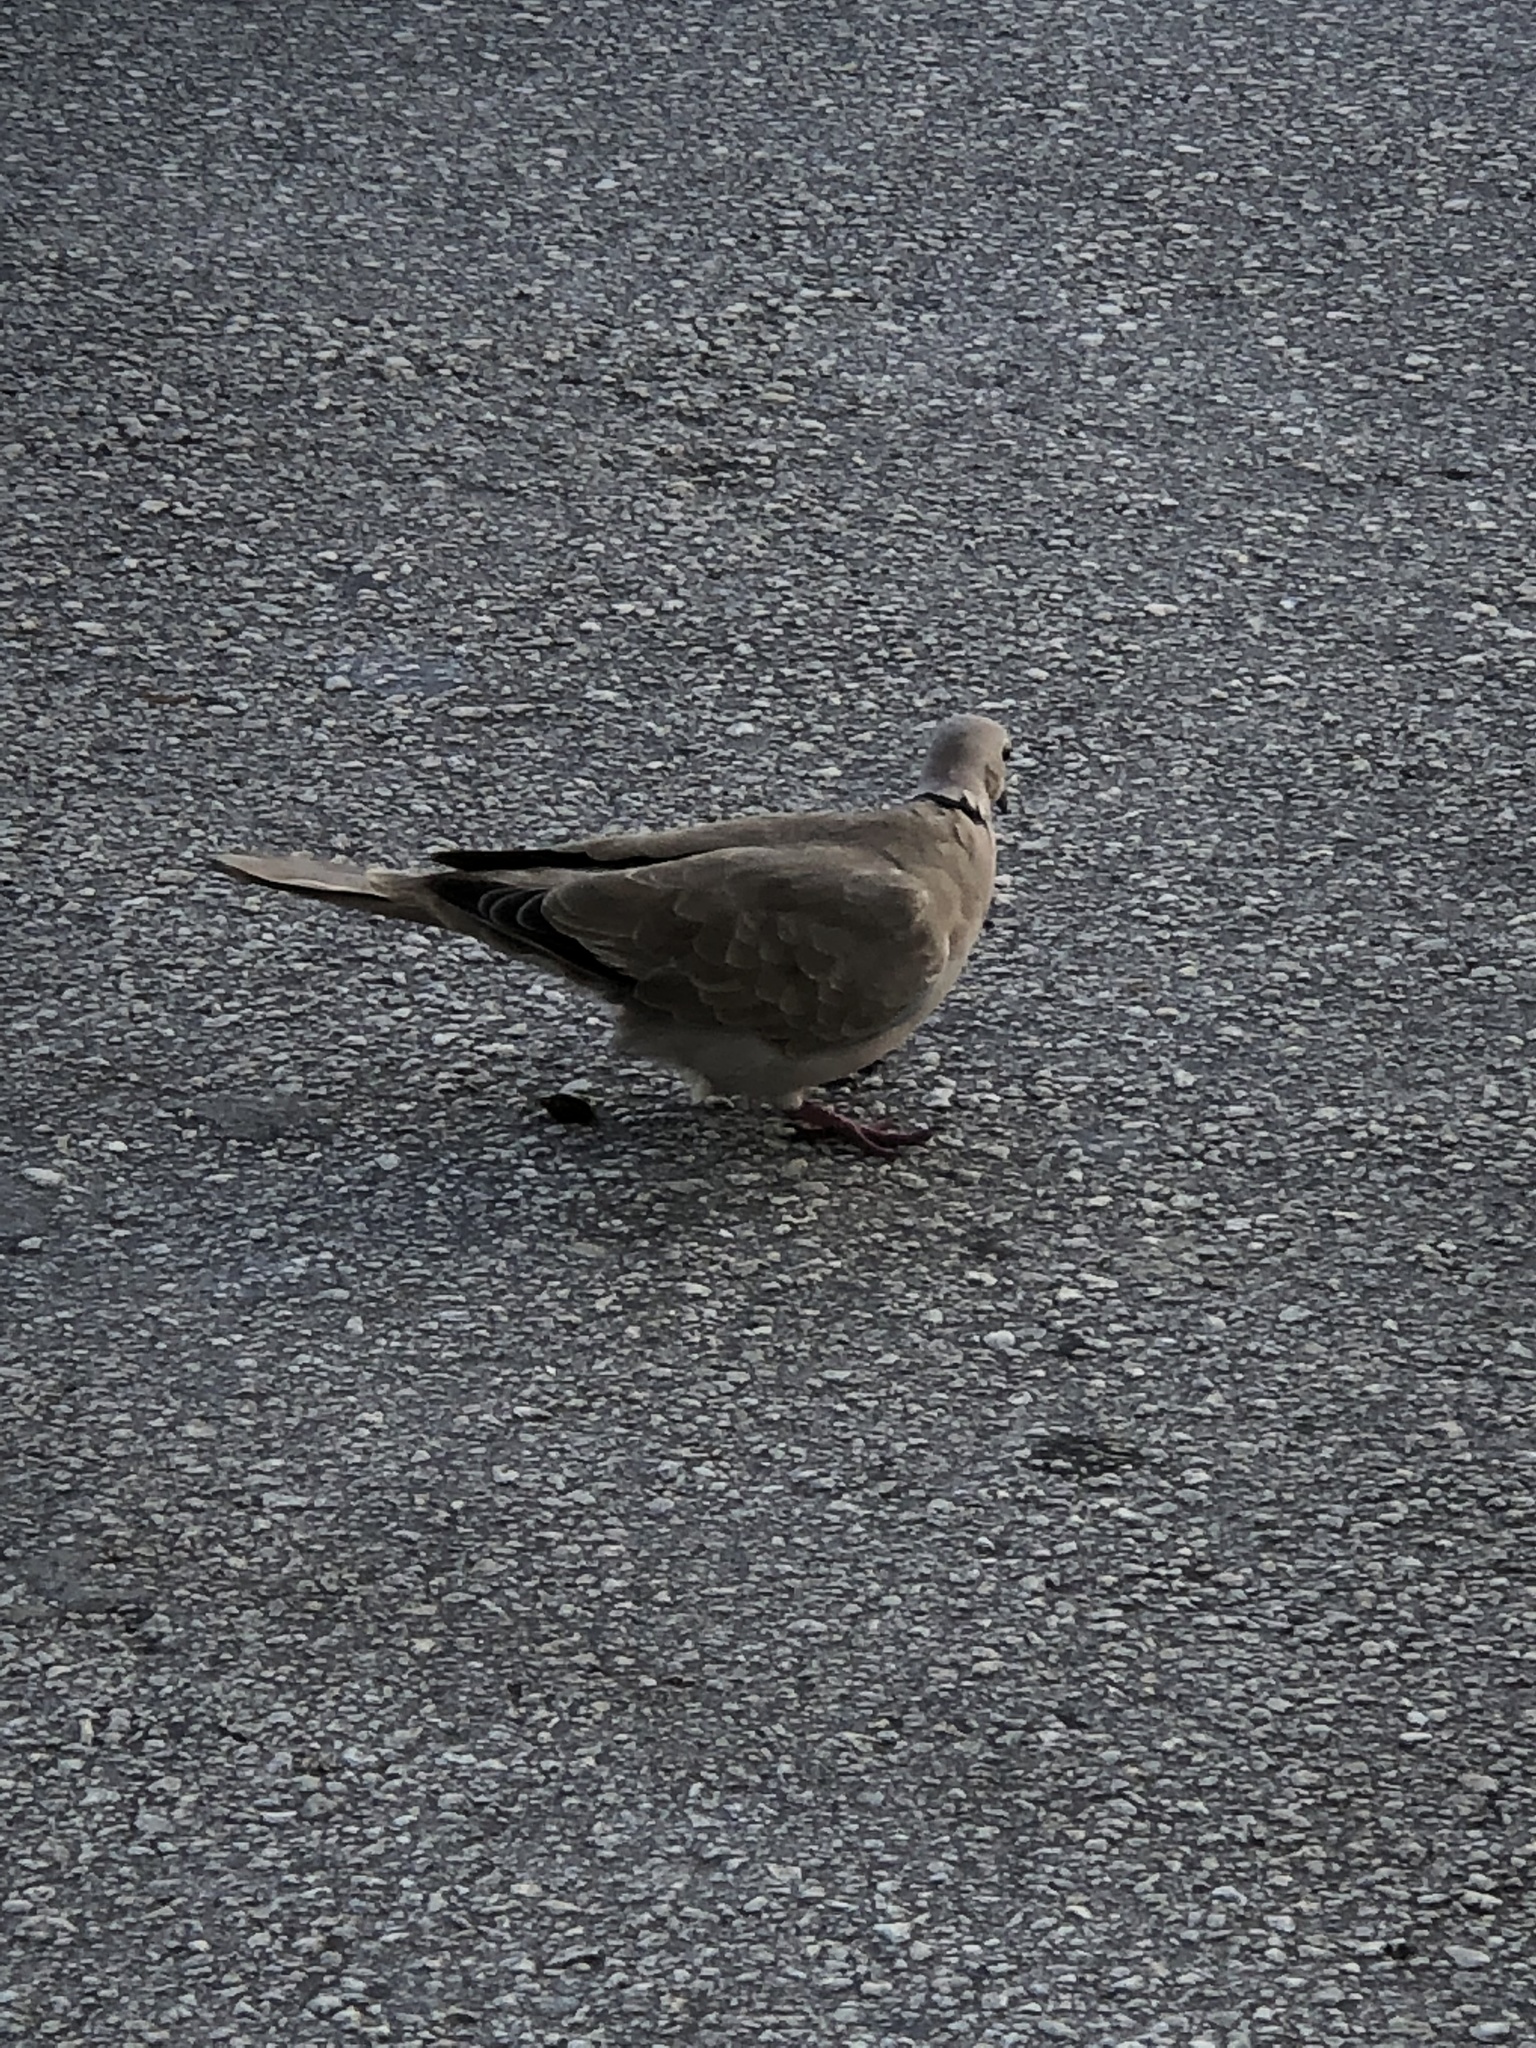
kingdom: Animalia
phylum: Chordata
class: Aves
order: Columbiformes
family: Columbidae
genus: Streptopelia
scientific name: Streptopelia decaocto
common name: Eurasian collared dove
